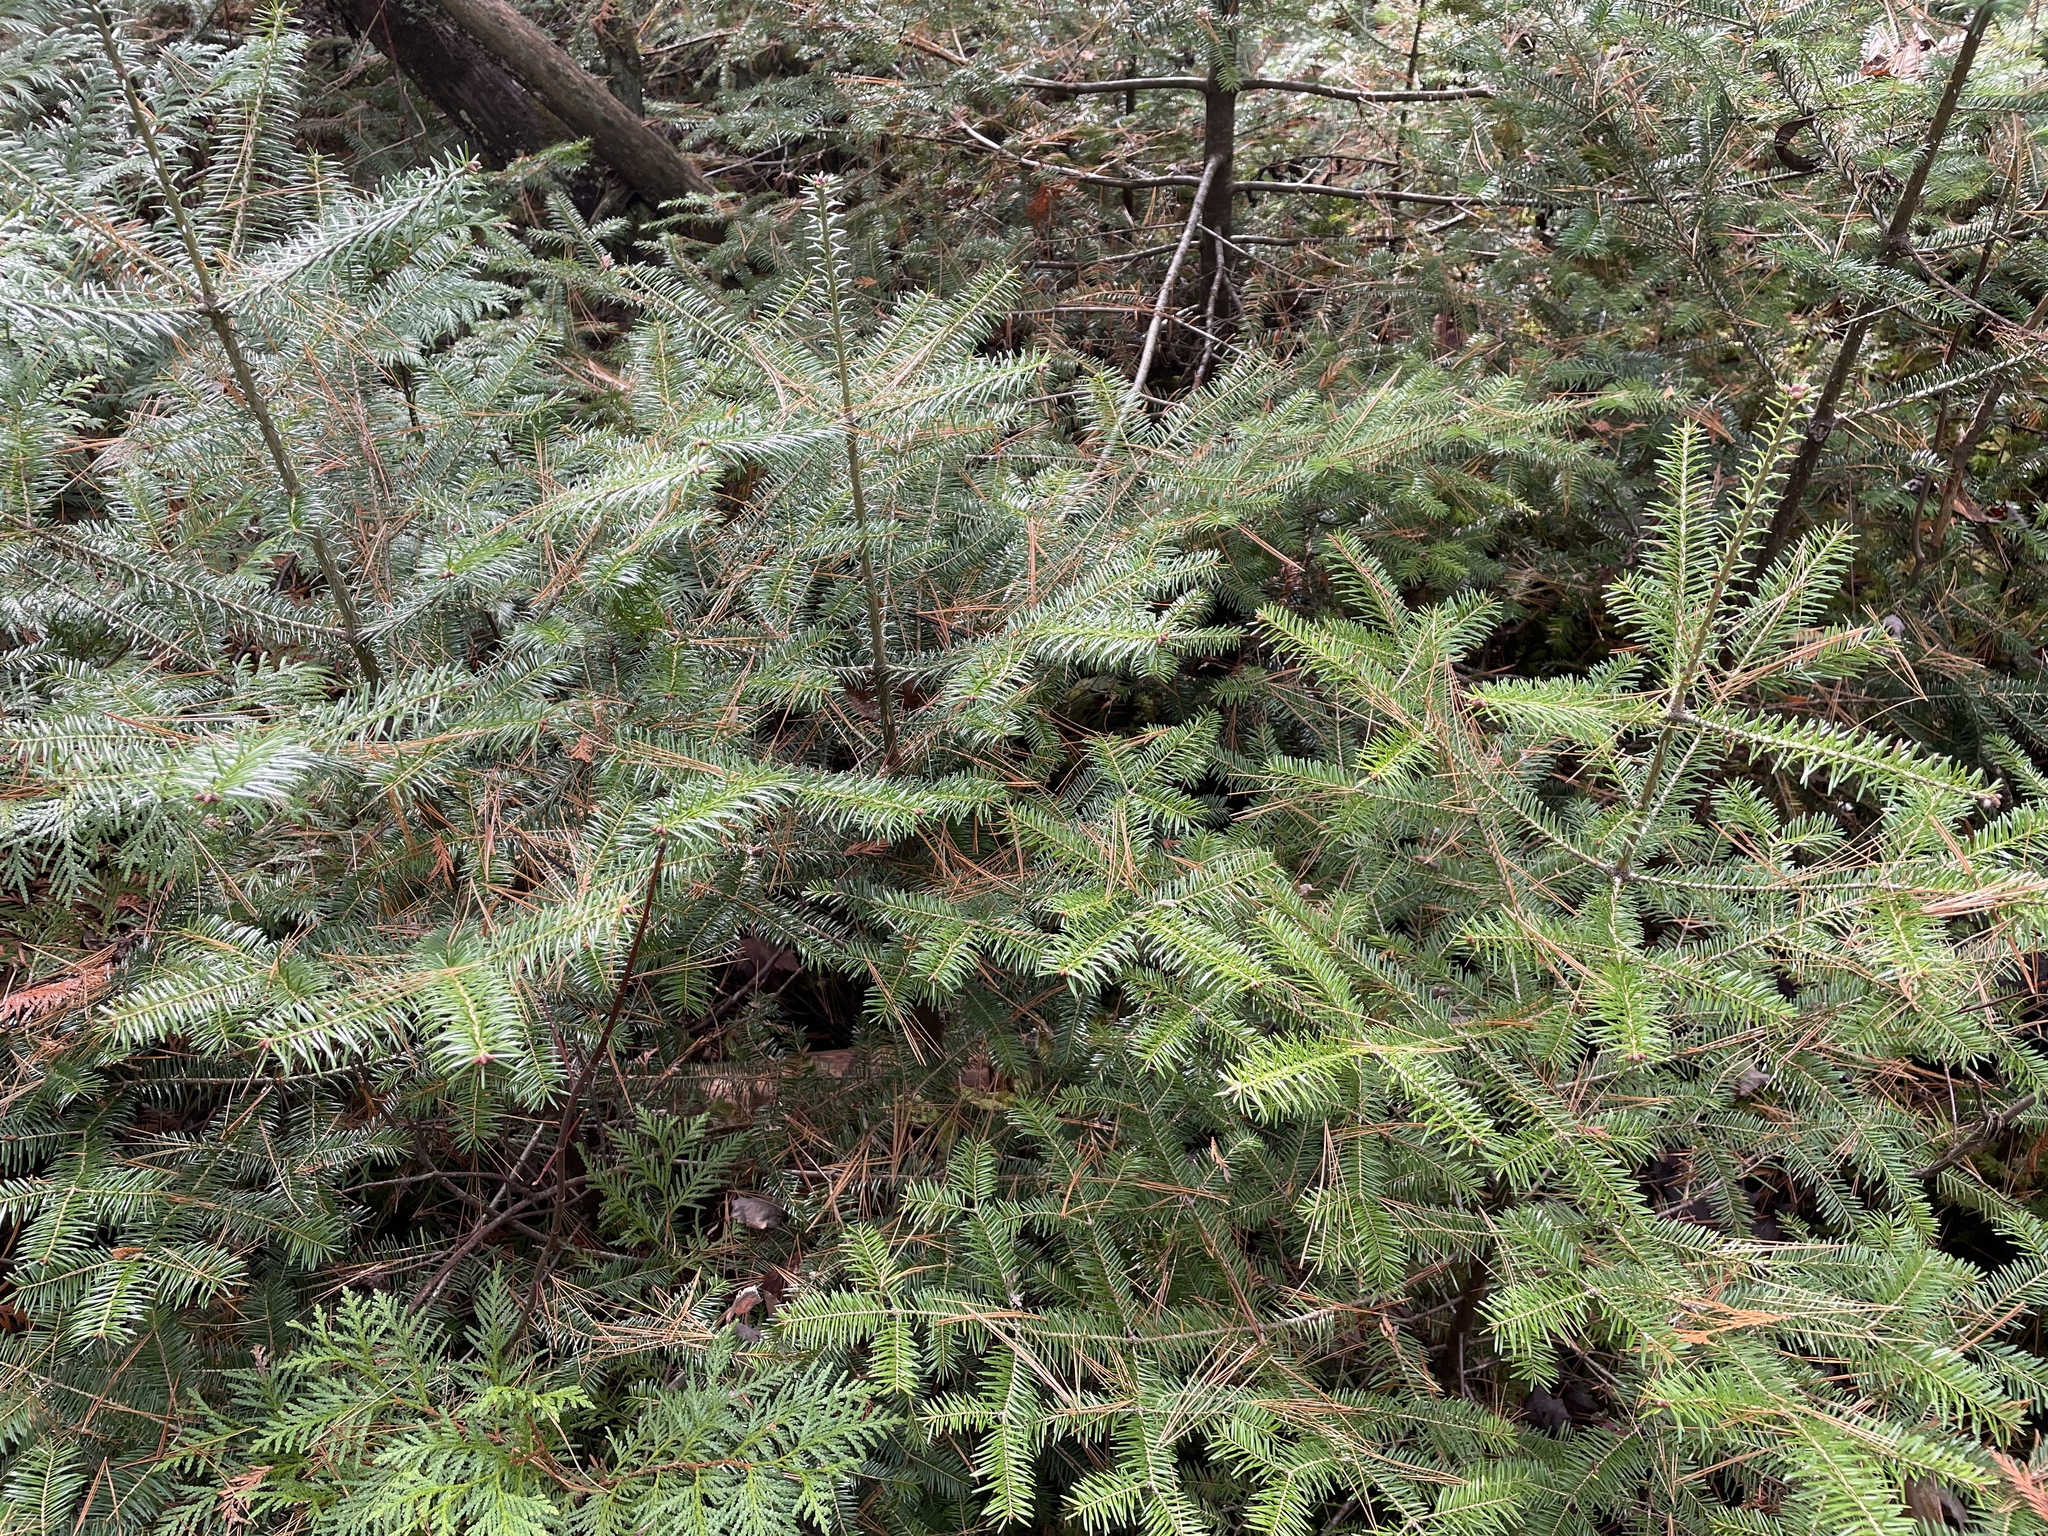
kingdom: Plantae
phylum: Tracheophyta
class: Pinopsida
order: Pinales
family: Pinaceae
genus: Abies
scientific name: Abies balsamea
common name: Balsam fir
